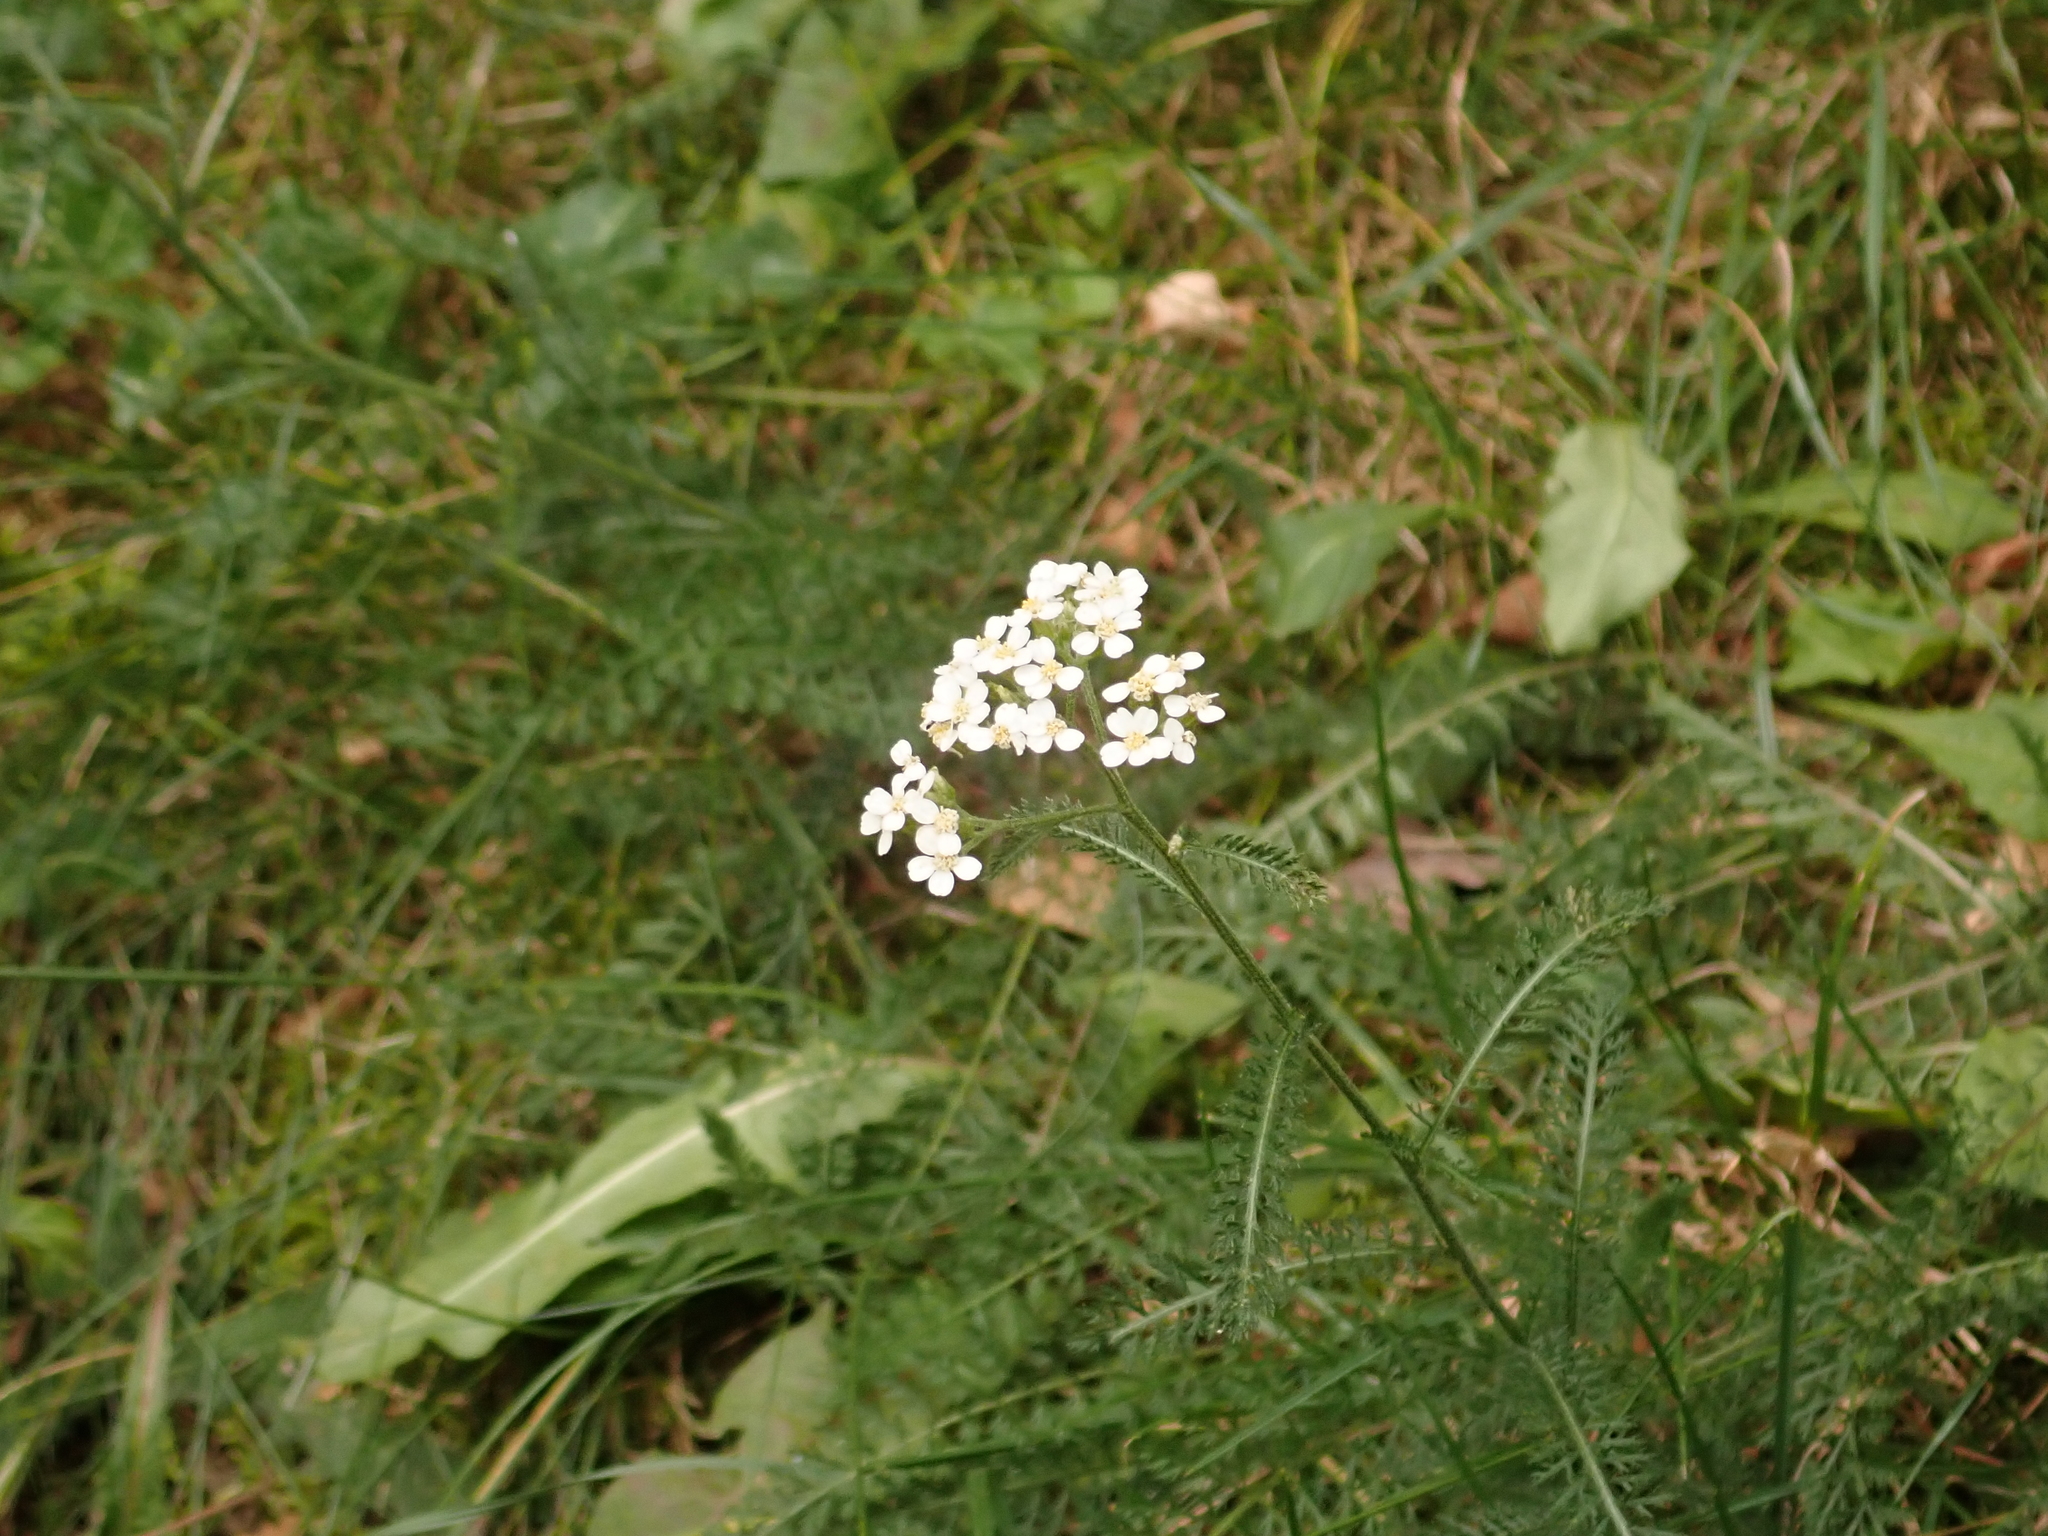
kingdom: Plantae
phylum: Tracheophyta
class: Magnoliopsida
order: Asterales
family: Asteraceae
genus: Achillea
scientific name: Achillea millefolium
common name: Yarrow
